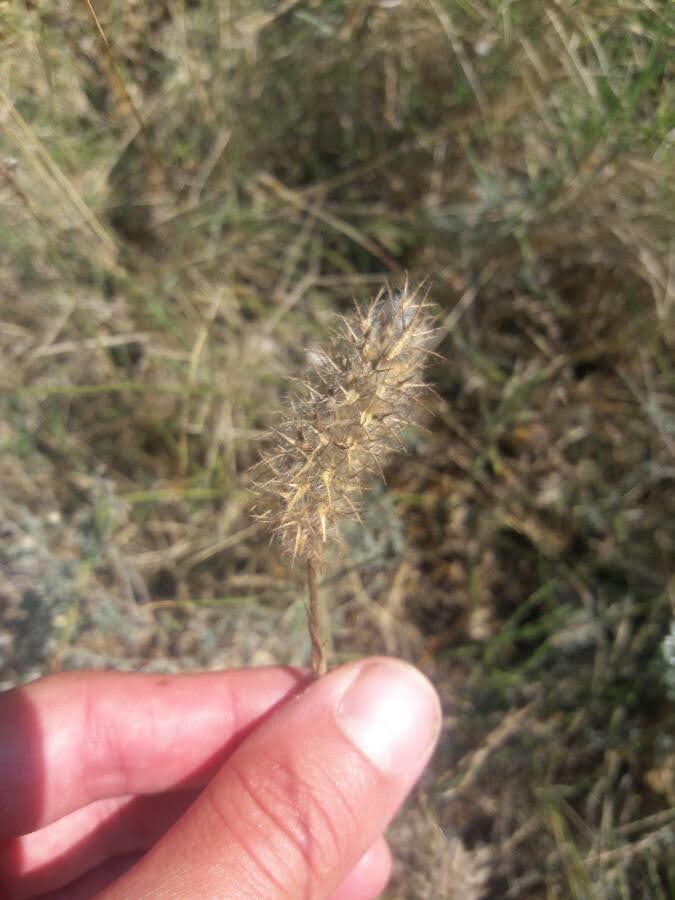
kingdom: Plantae
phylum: Tracheophyta
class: Magnoliopsida
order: Fabales
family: Fabaceae
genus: Trifolium
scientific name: Trifolium angustifolium
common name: Narrow clover
